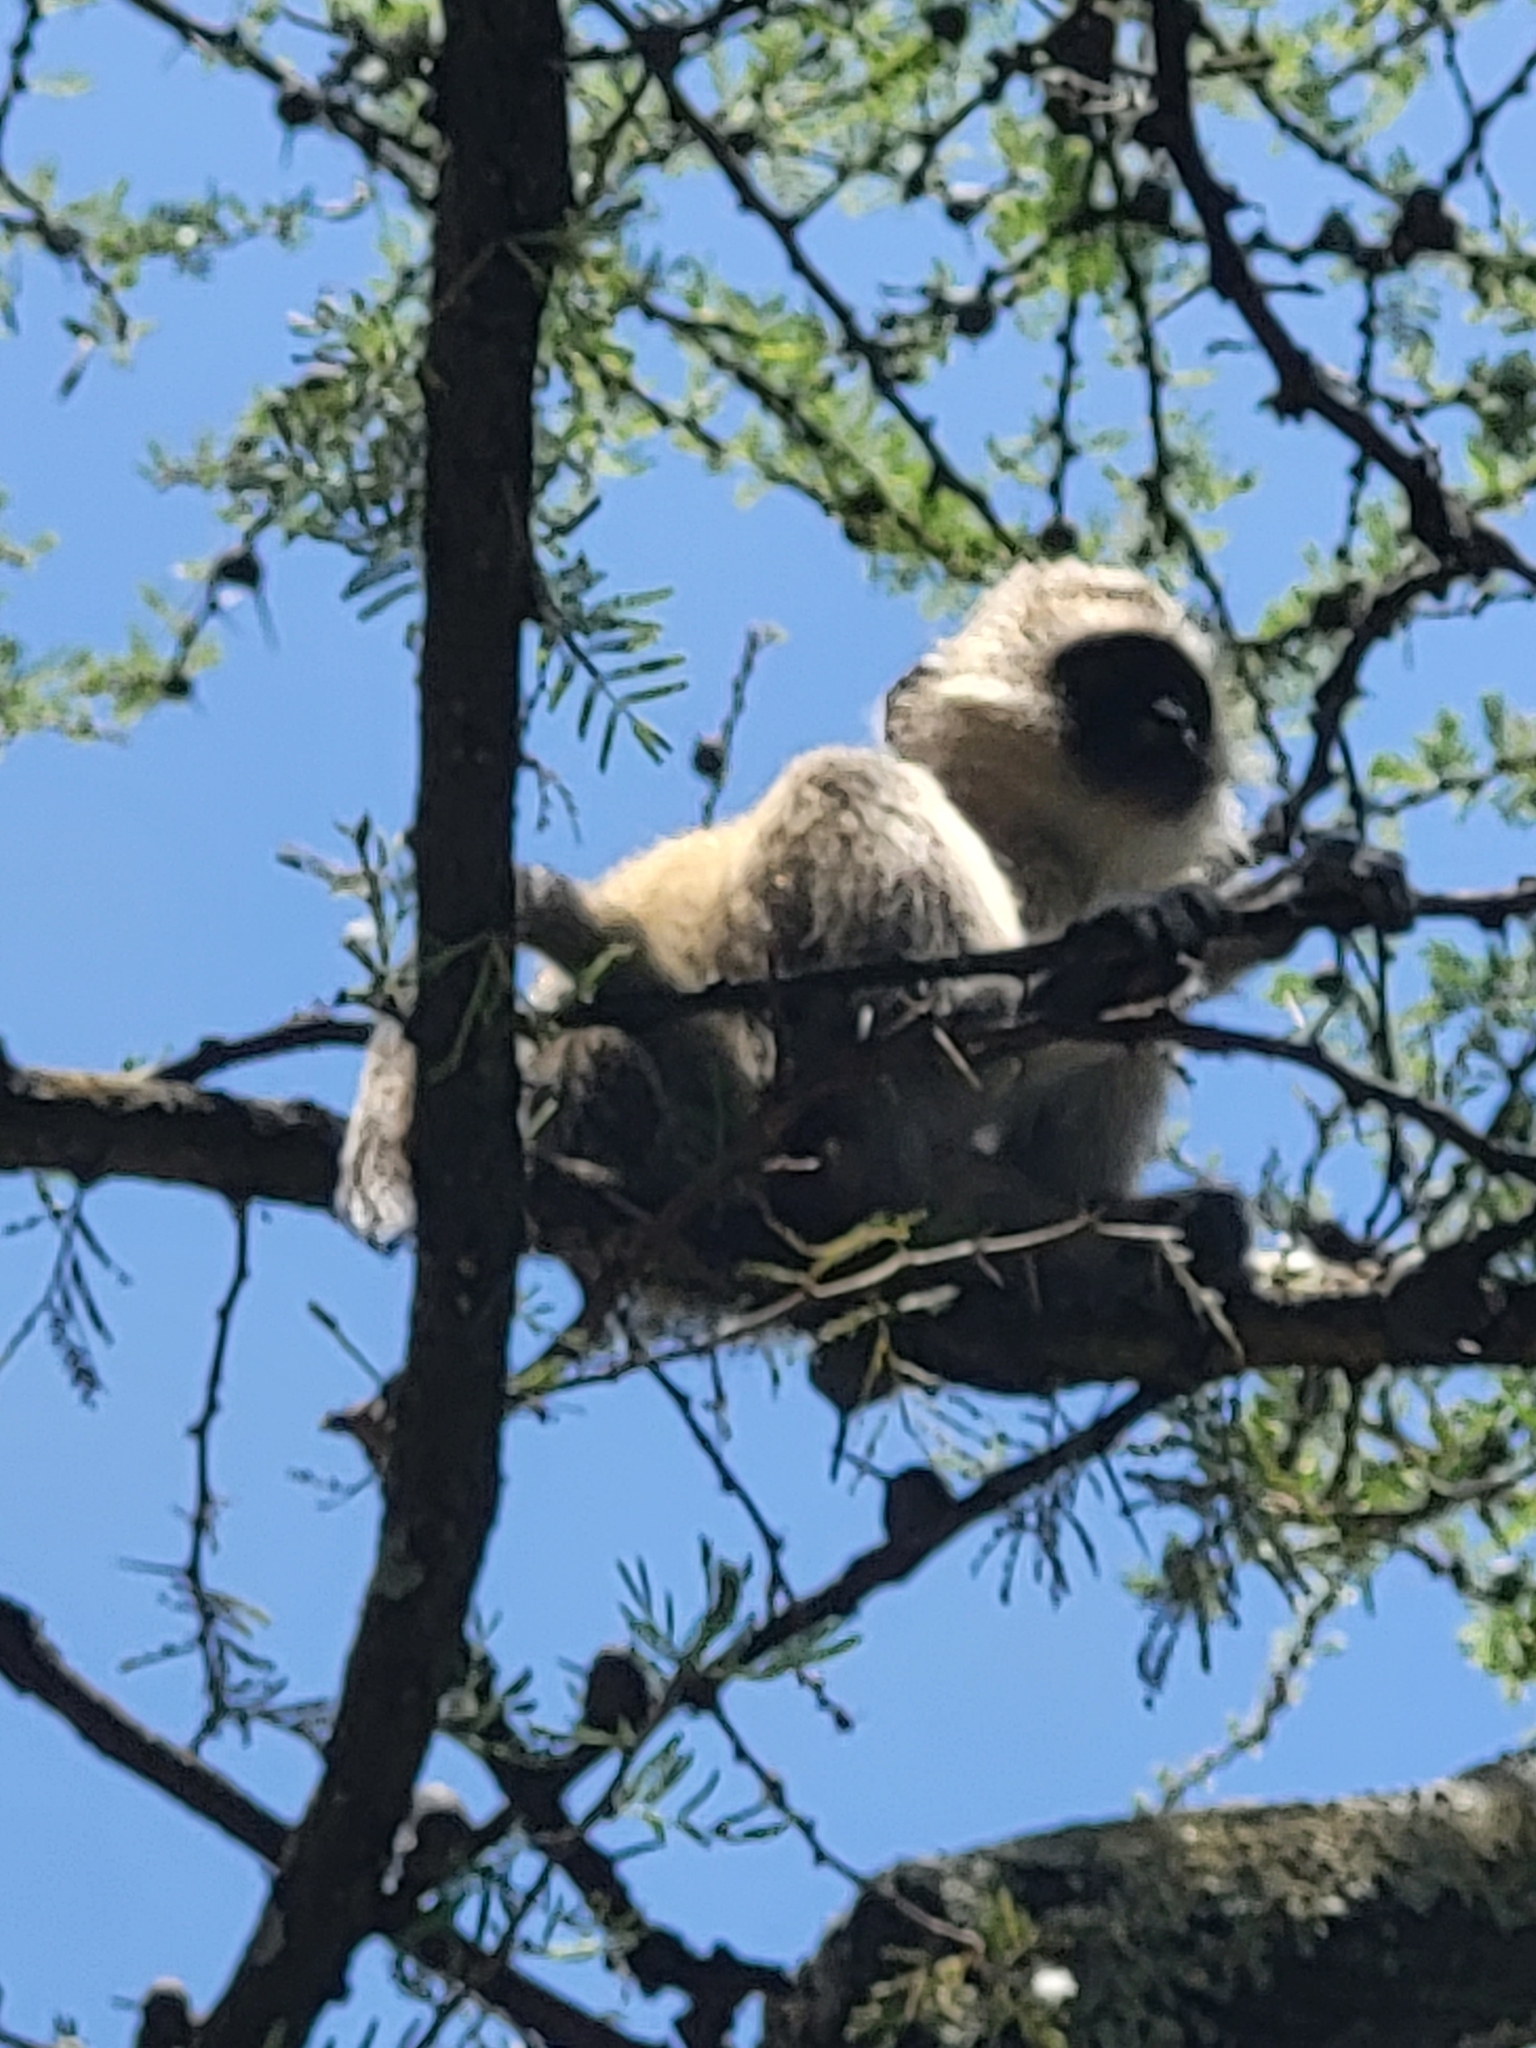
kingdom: Animalia
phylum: Chordata
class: Mammalia
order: Primates
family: Cercopithecidae
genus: Chlorocebus
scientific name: Chlorocebus pygerythrus
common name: Vervet monkey
